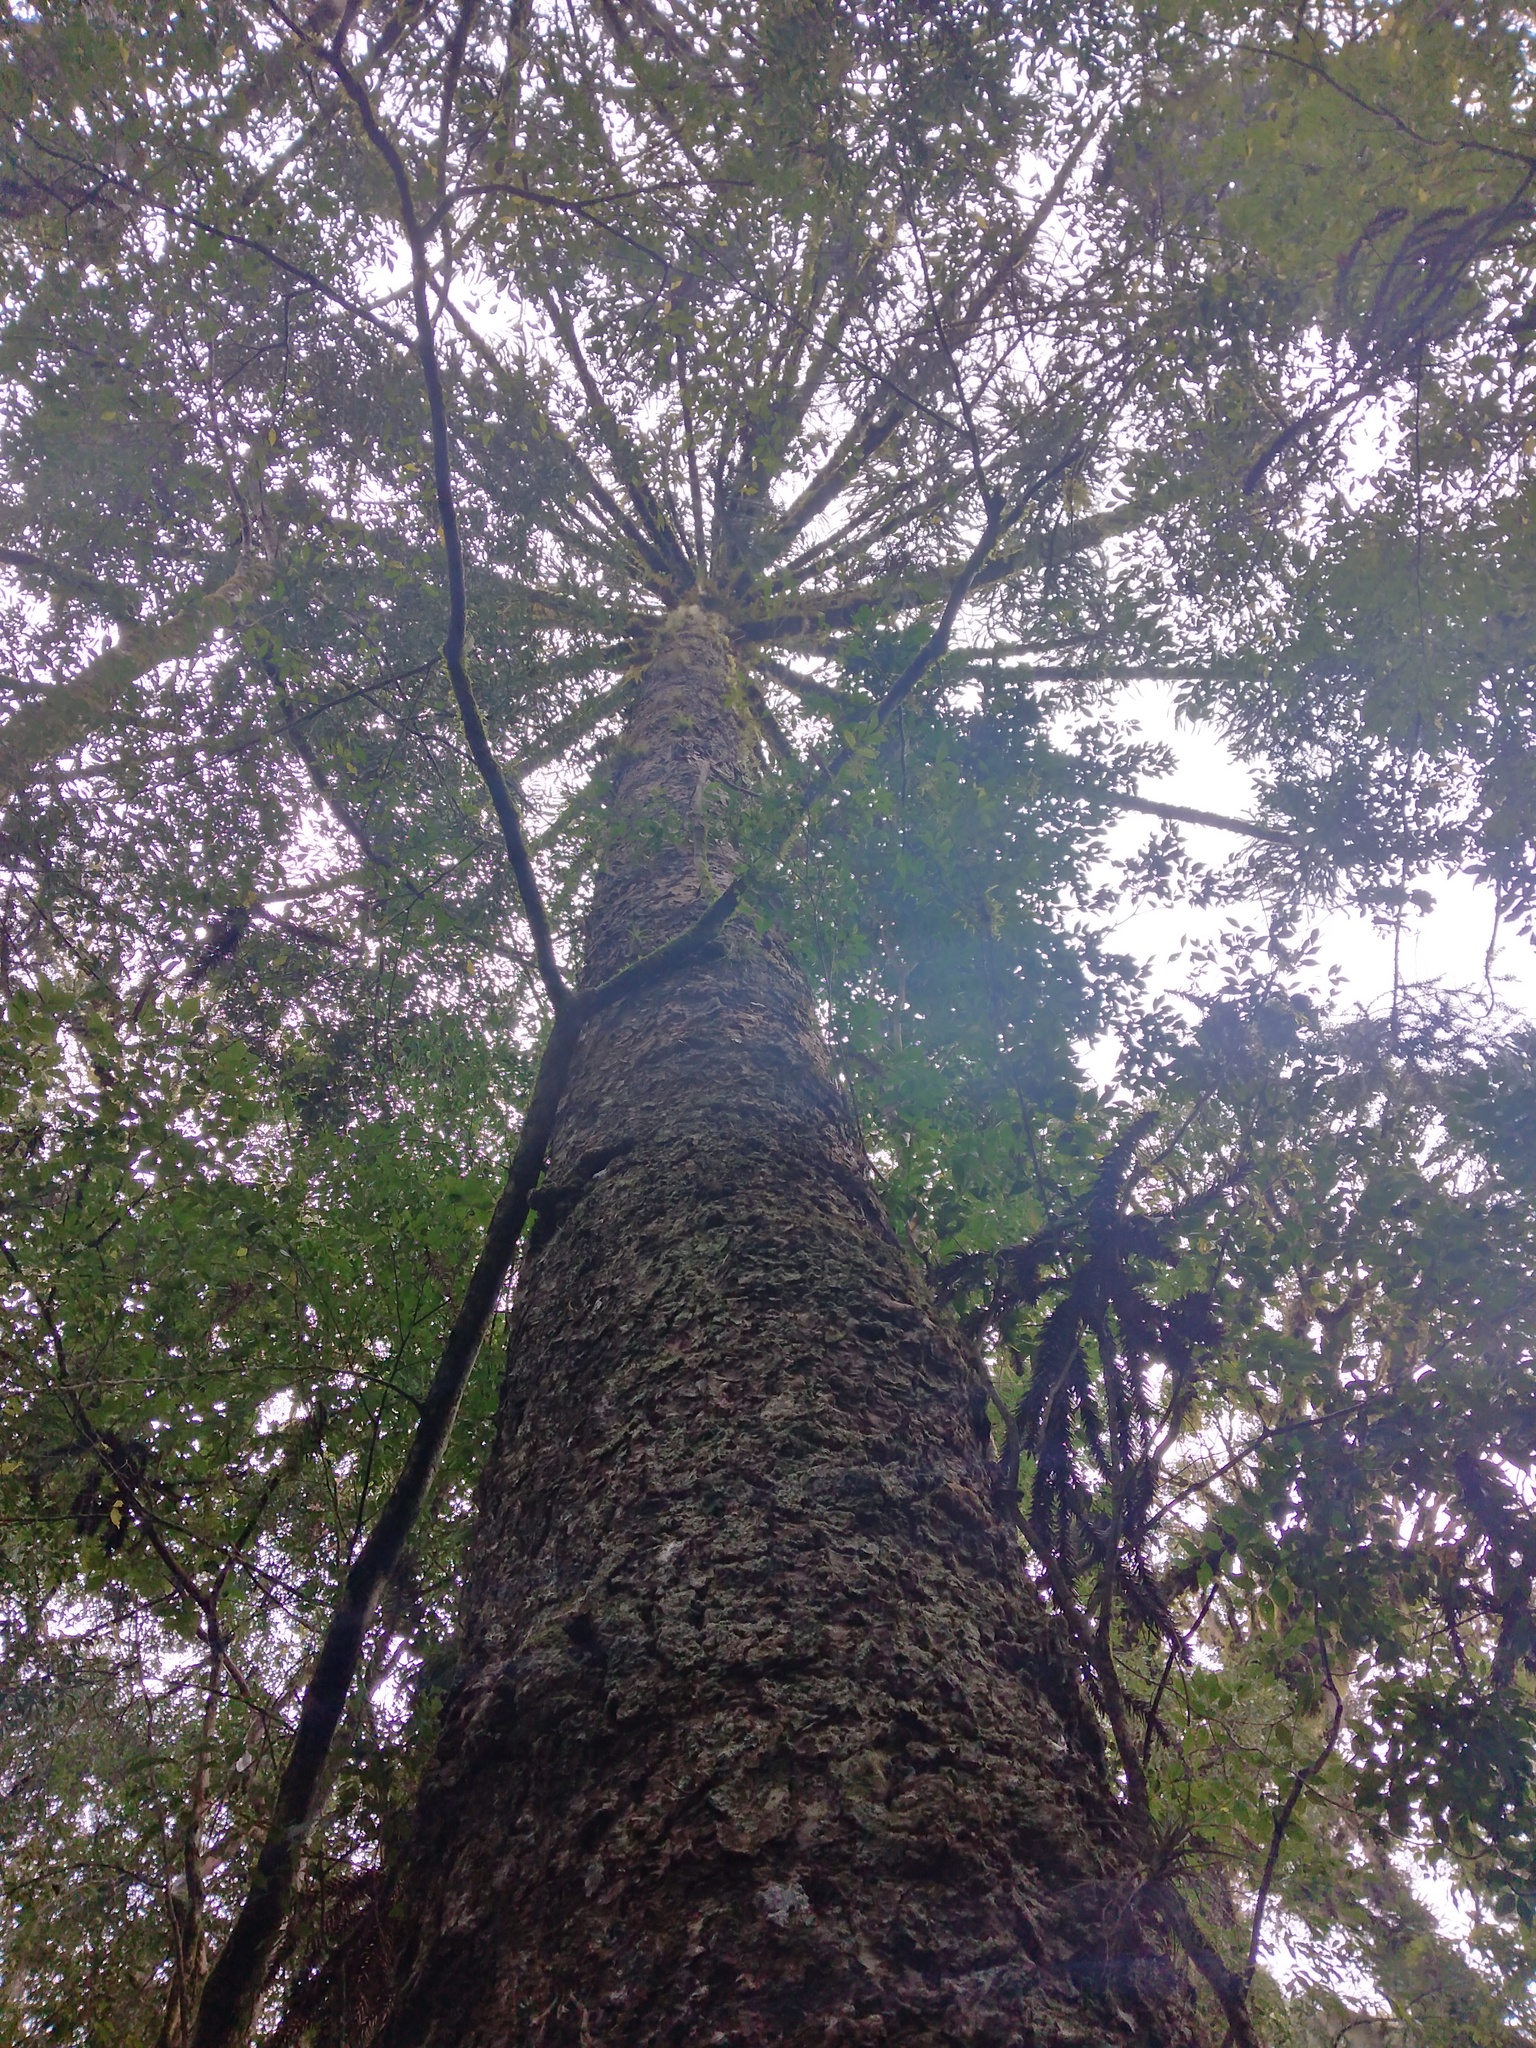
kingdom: Plantae
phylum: Tracheophyta
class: Pinopsida
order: Pinales
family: Araucariaceae
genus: Araucaria
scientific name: Araucaria angustifolia
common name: Candelabra tree
